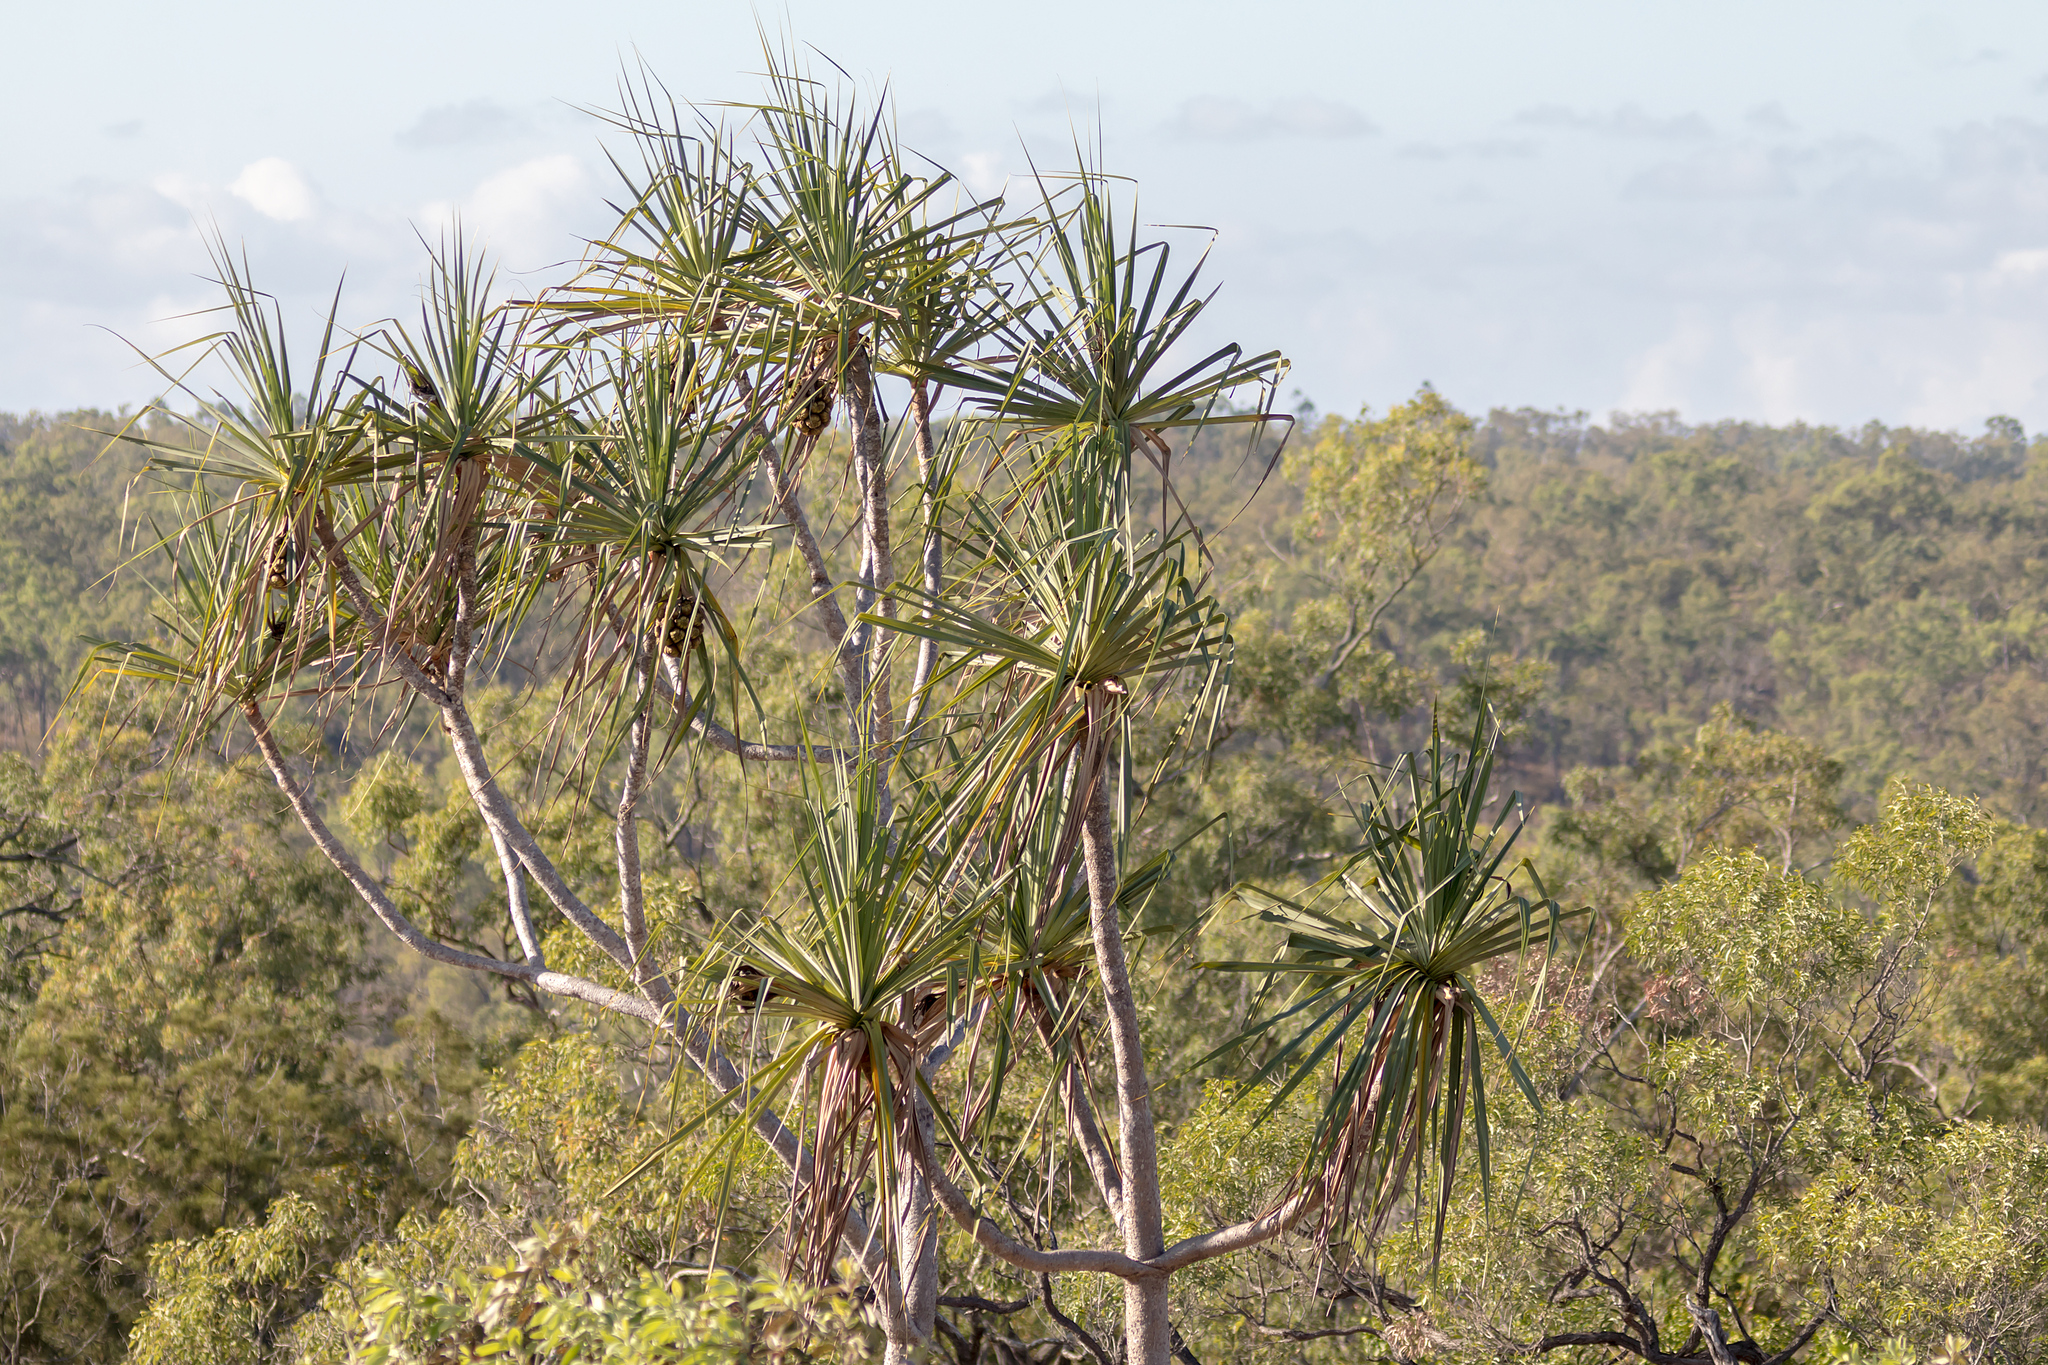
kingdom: Plantae
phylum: Tracheophyta
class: Liliopsida
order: Pandanales
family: Pandanaceae
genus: Pandanus
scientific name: Pandanus spiralis
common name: Screw-pine
